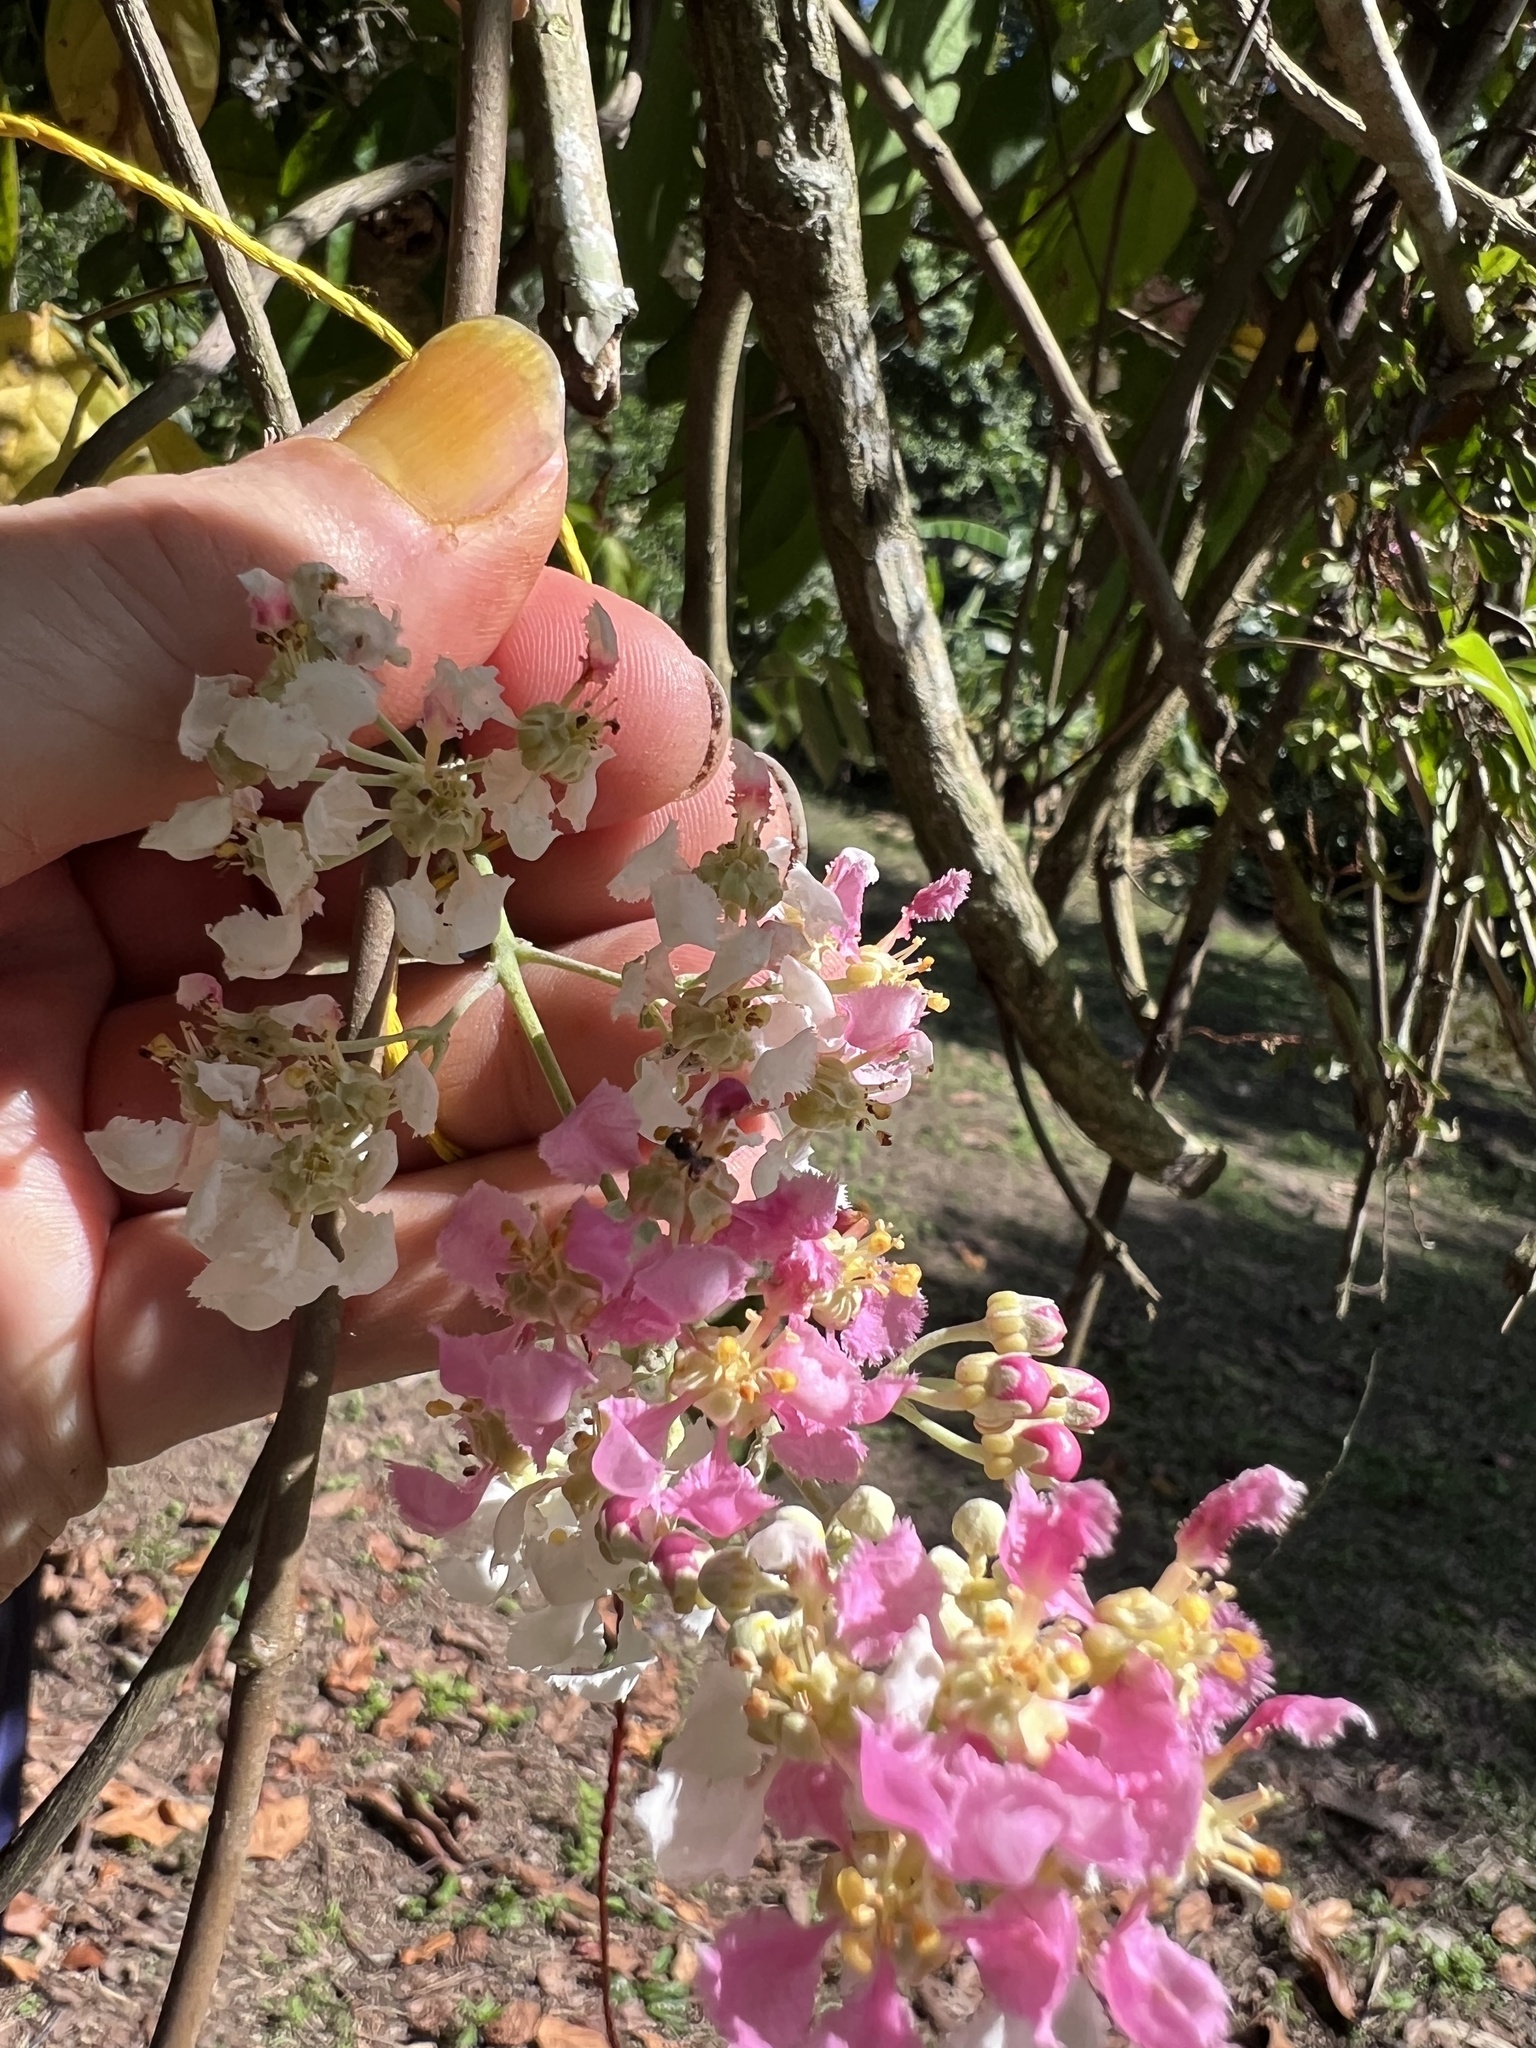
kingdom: Plantae
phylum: Tracheophyta
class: Magnoliopsida
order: Malpighiales
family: Malpighiaceae
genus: Banisteriopsis
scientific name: Banisteriopsis caapi
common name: Soulvine
